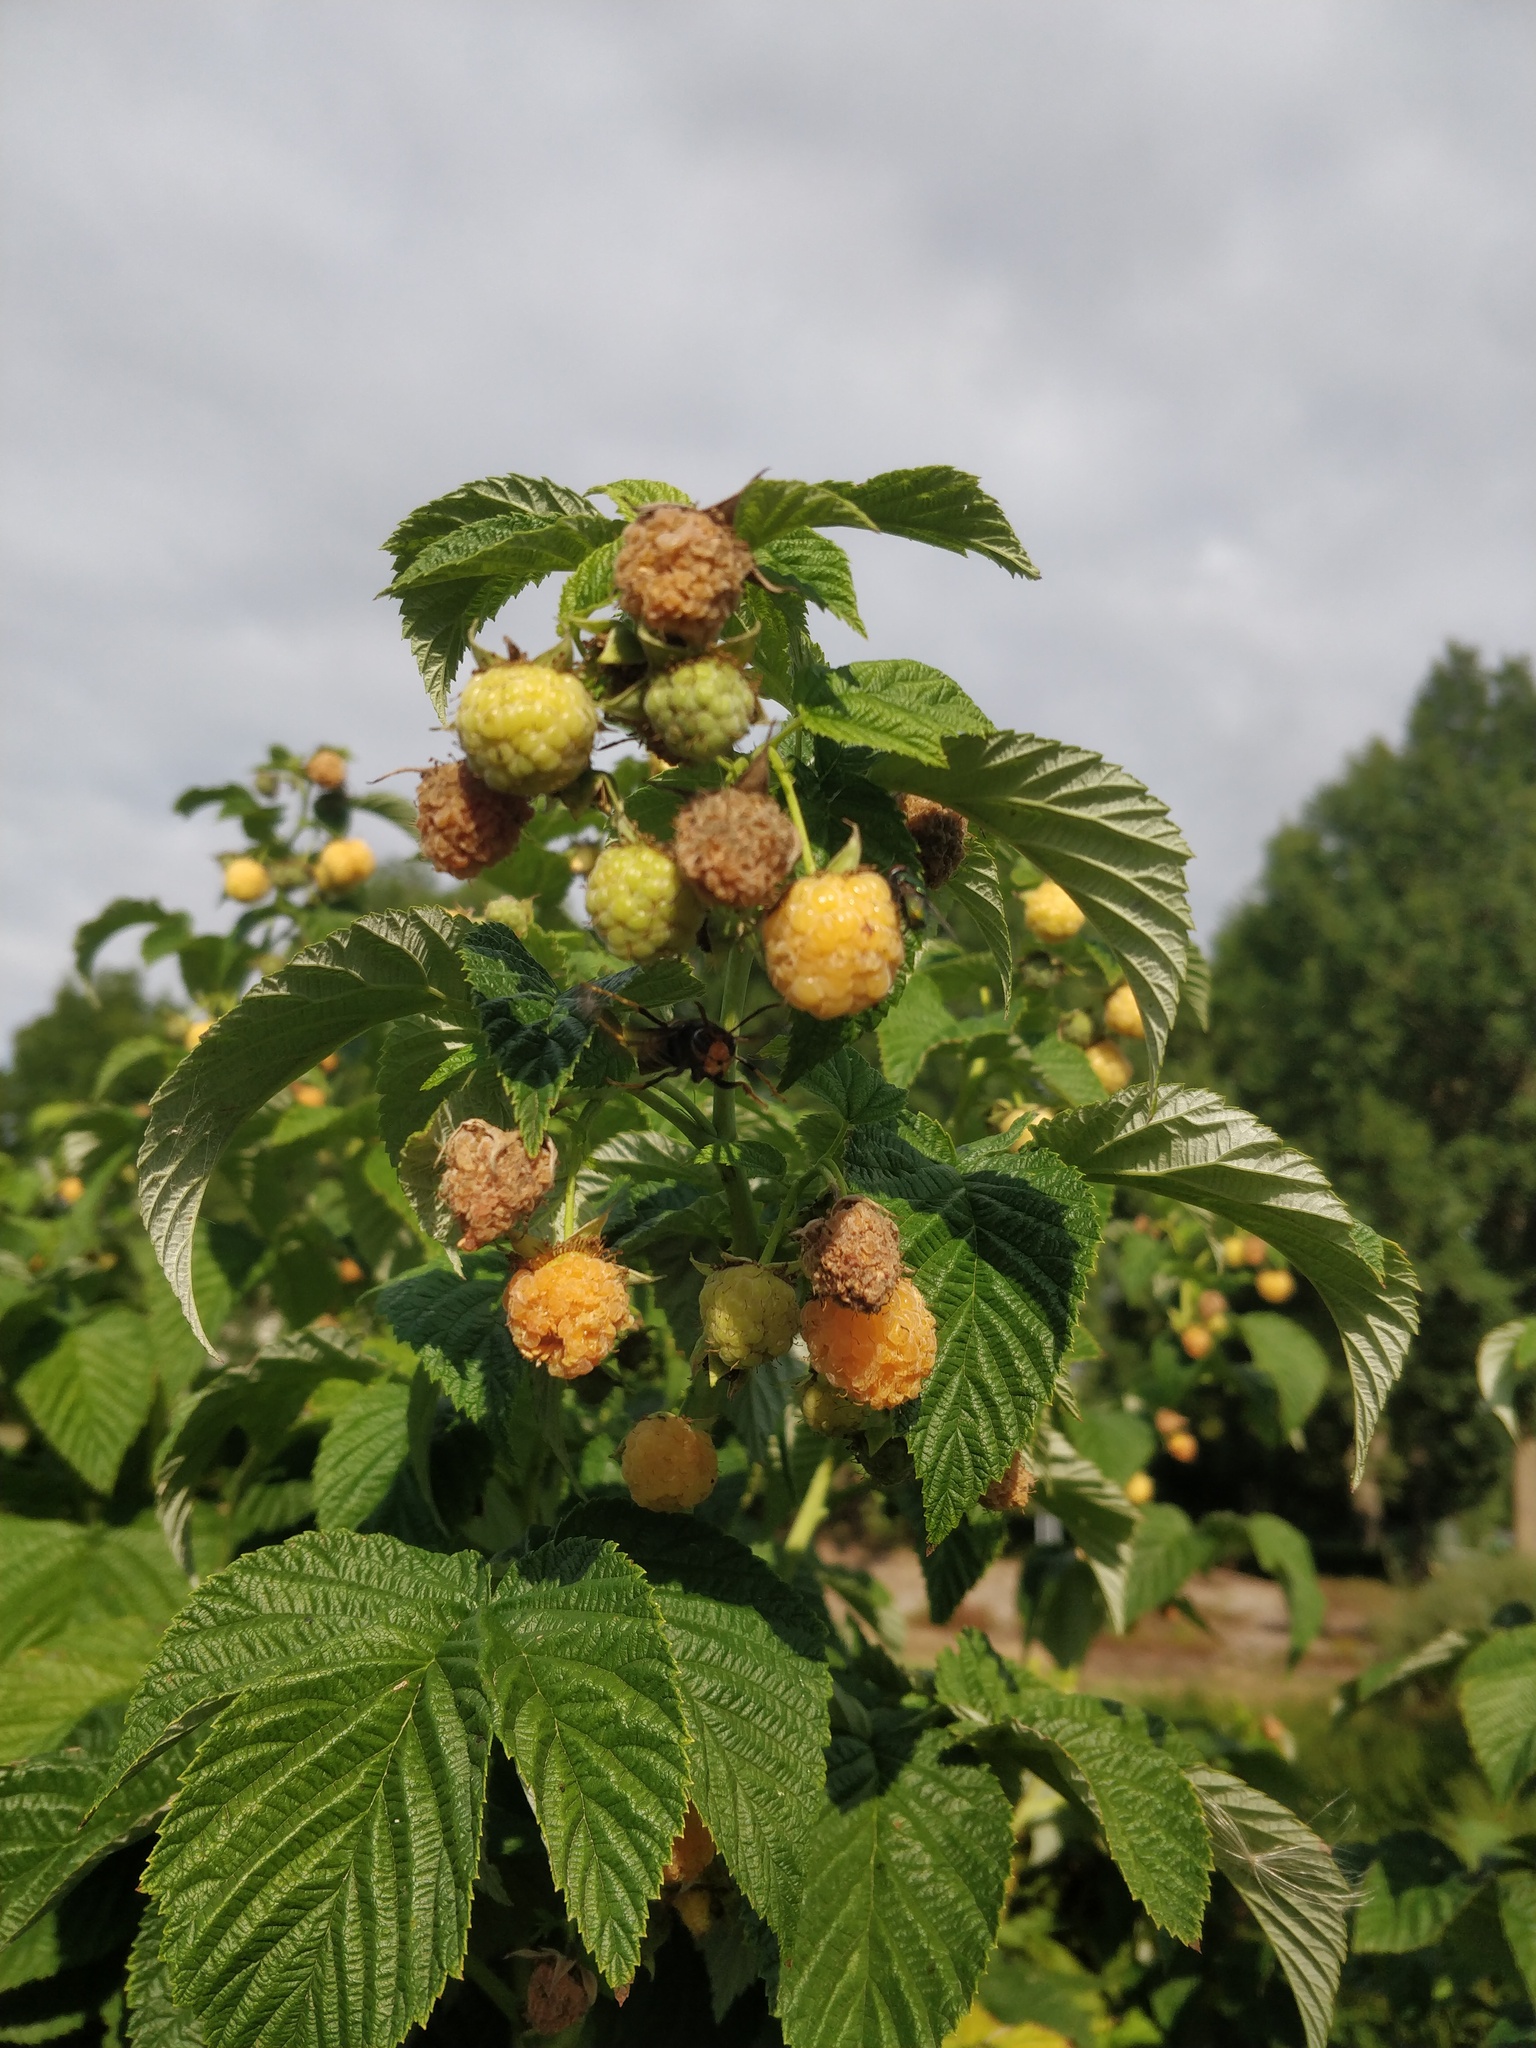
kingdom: Animalia
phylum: Arthropoda
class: Insecta
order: Hymenoptera
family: Vespidae
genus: Vespa
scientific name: Vespa velutina
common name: Asian hornet
